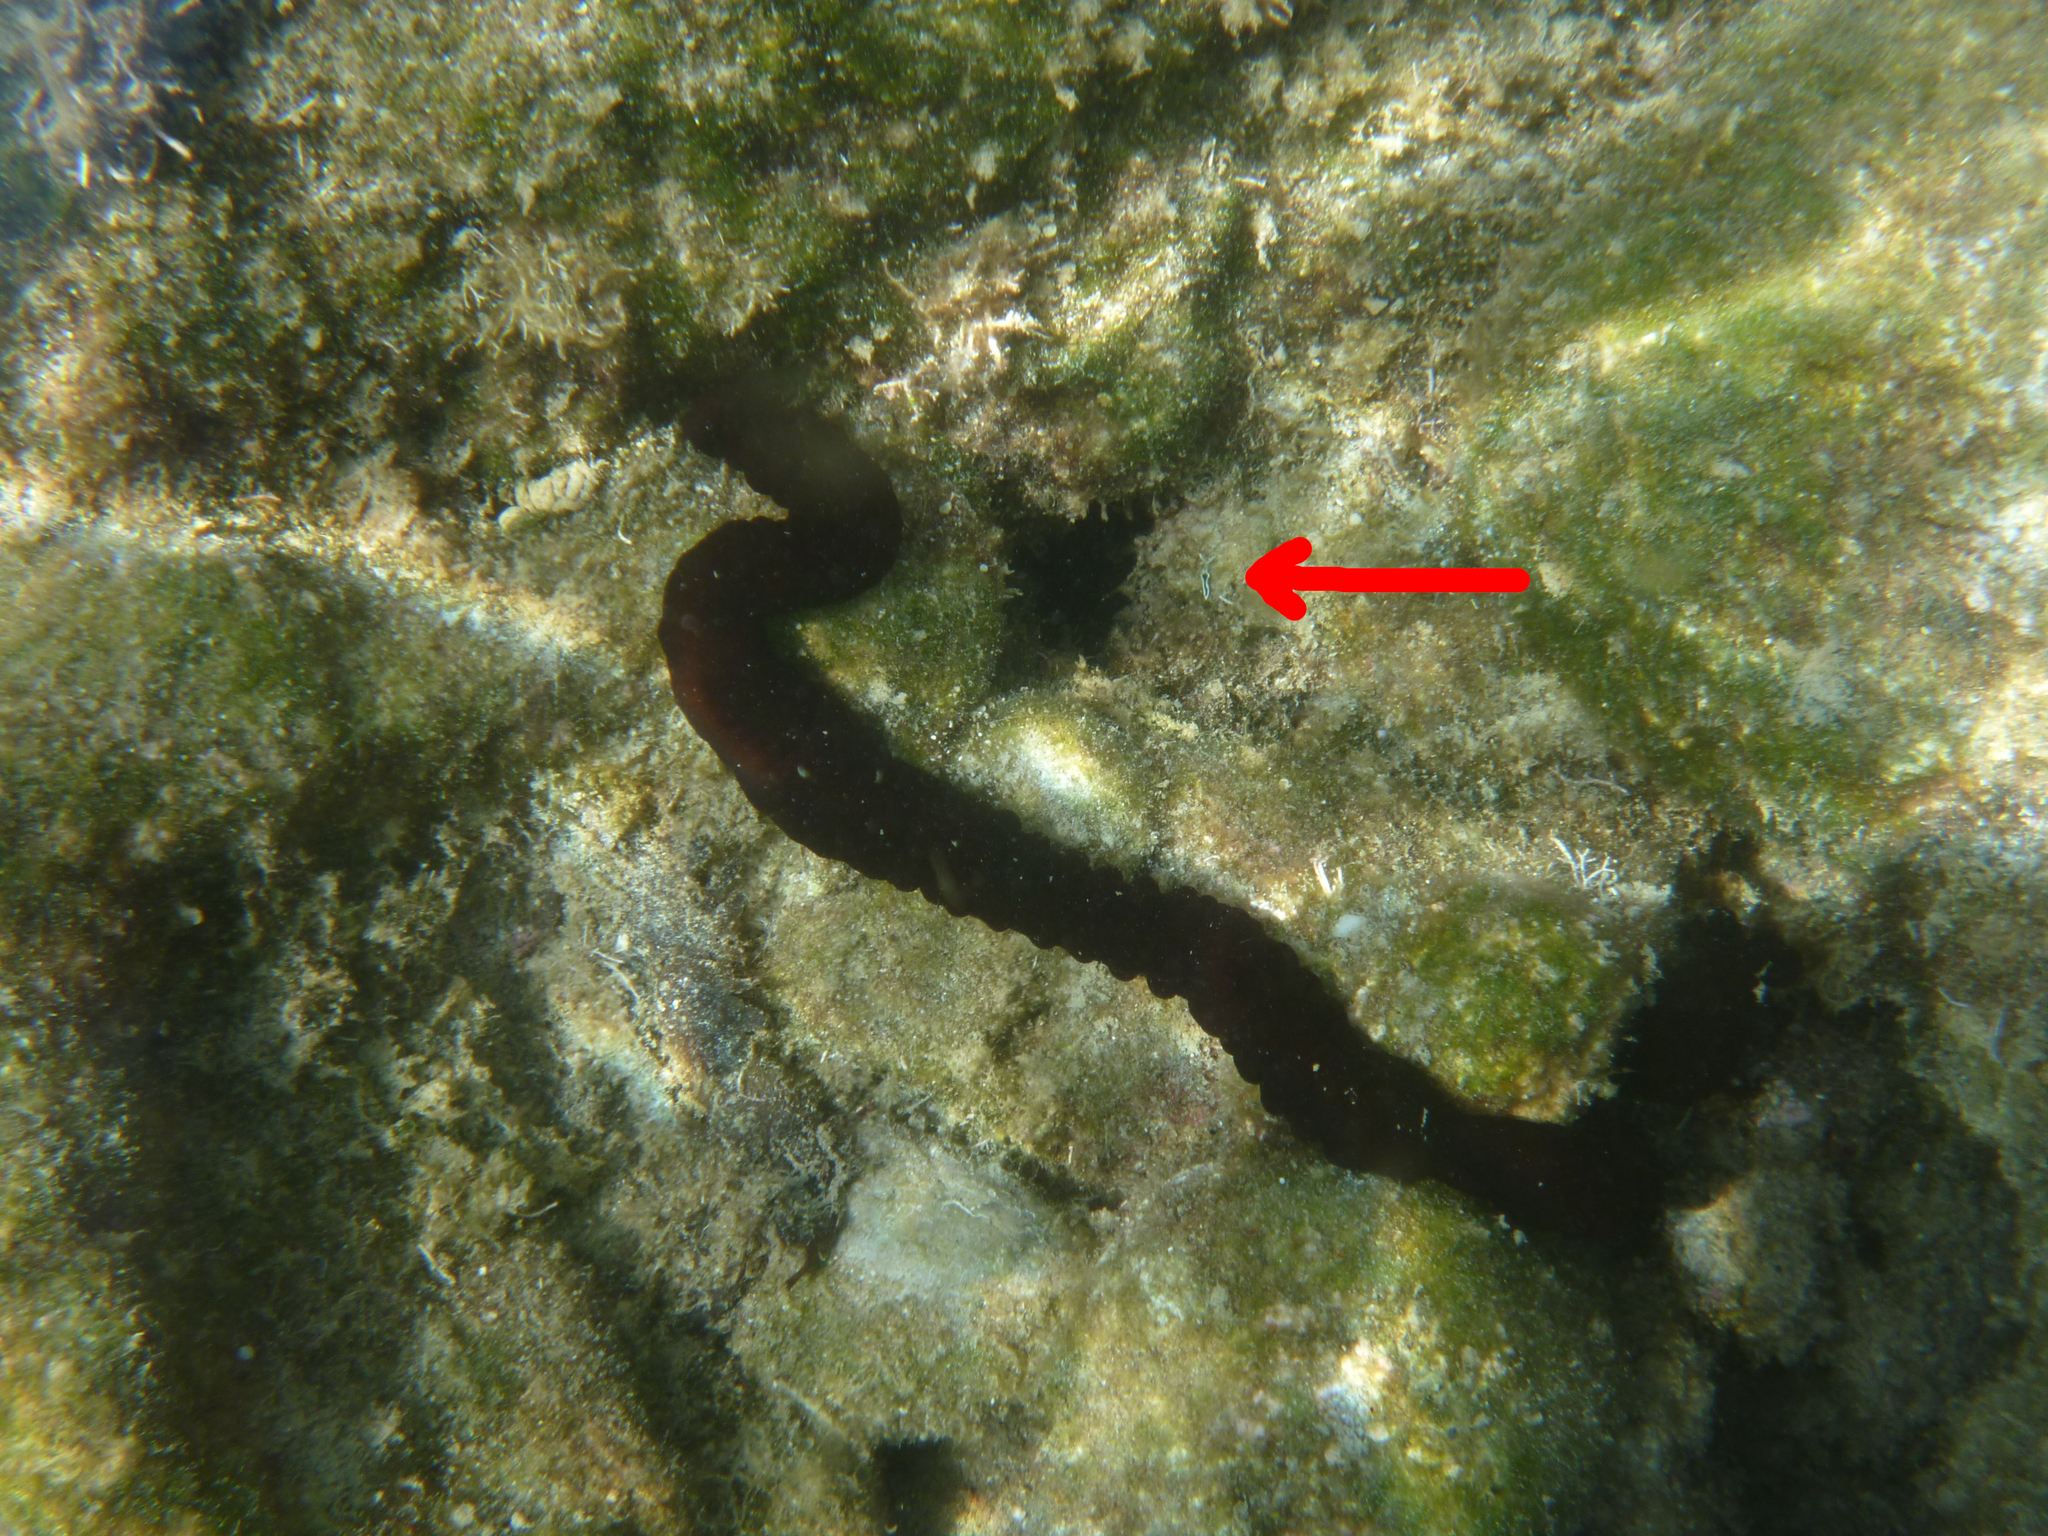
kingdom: Animalia
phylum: Mollusca
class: Gastropoda
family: Plakobranchidae
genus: Elysia
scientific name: Elysia timida
